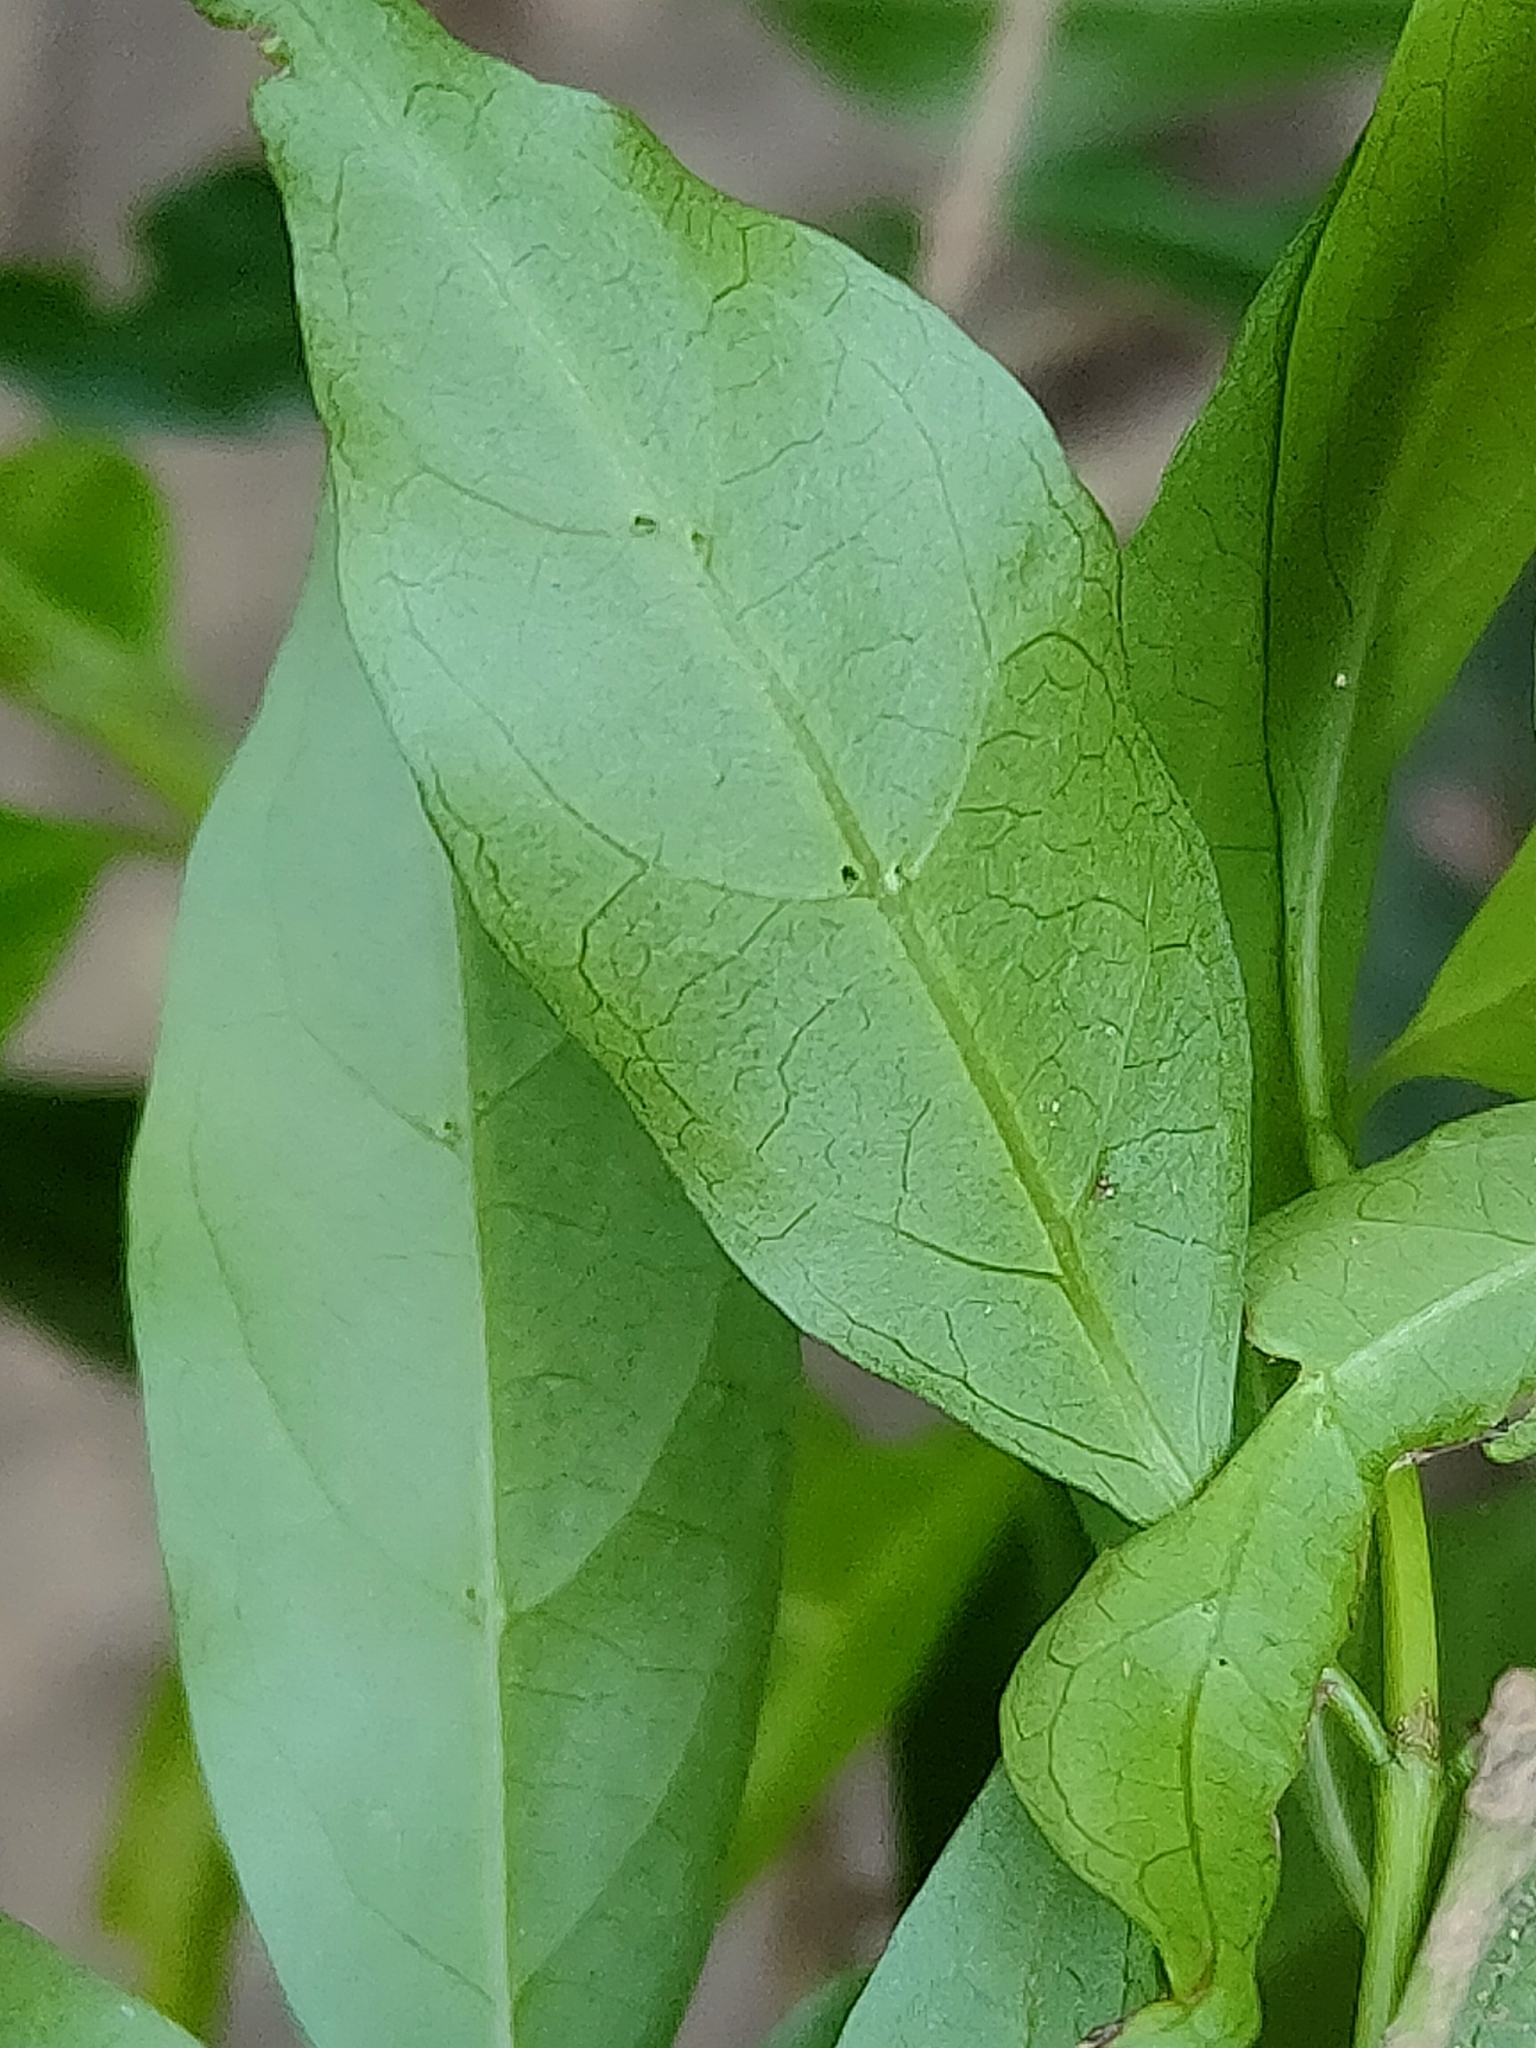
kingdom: Plantae
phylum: Tracheophyta
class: Magnoliopsida
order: Gentianales
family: Rubiaceae
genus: Gynochthodes
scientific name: Gynochthodes jasminoides
